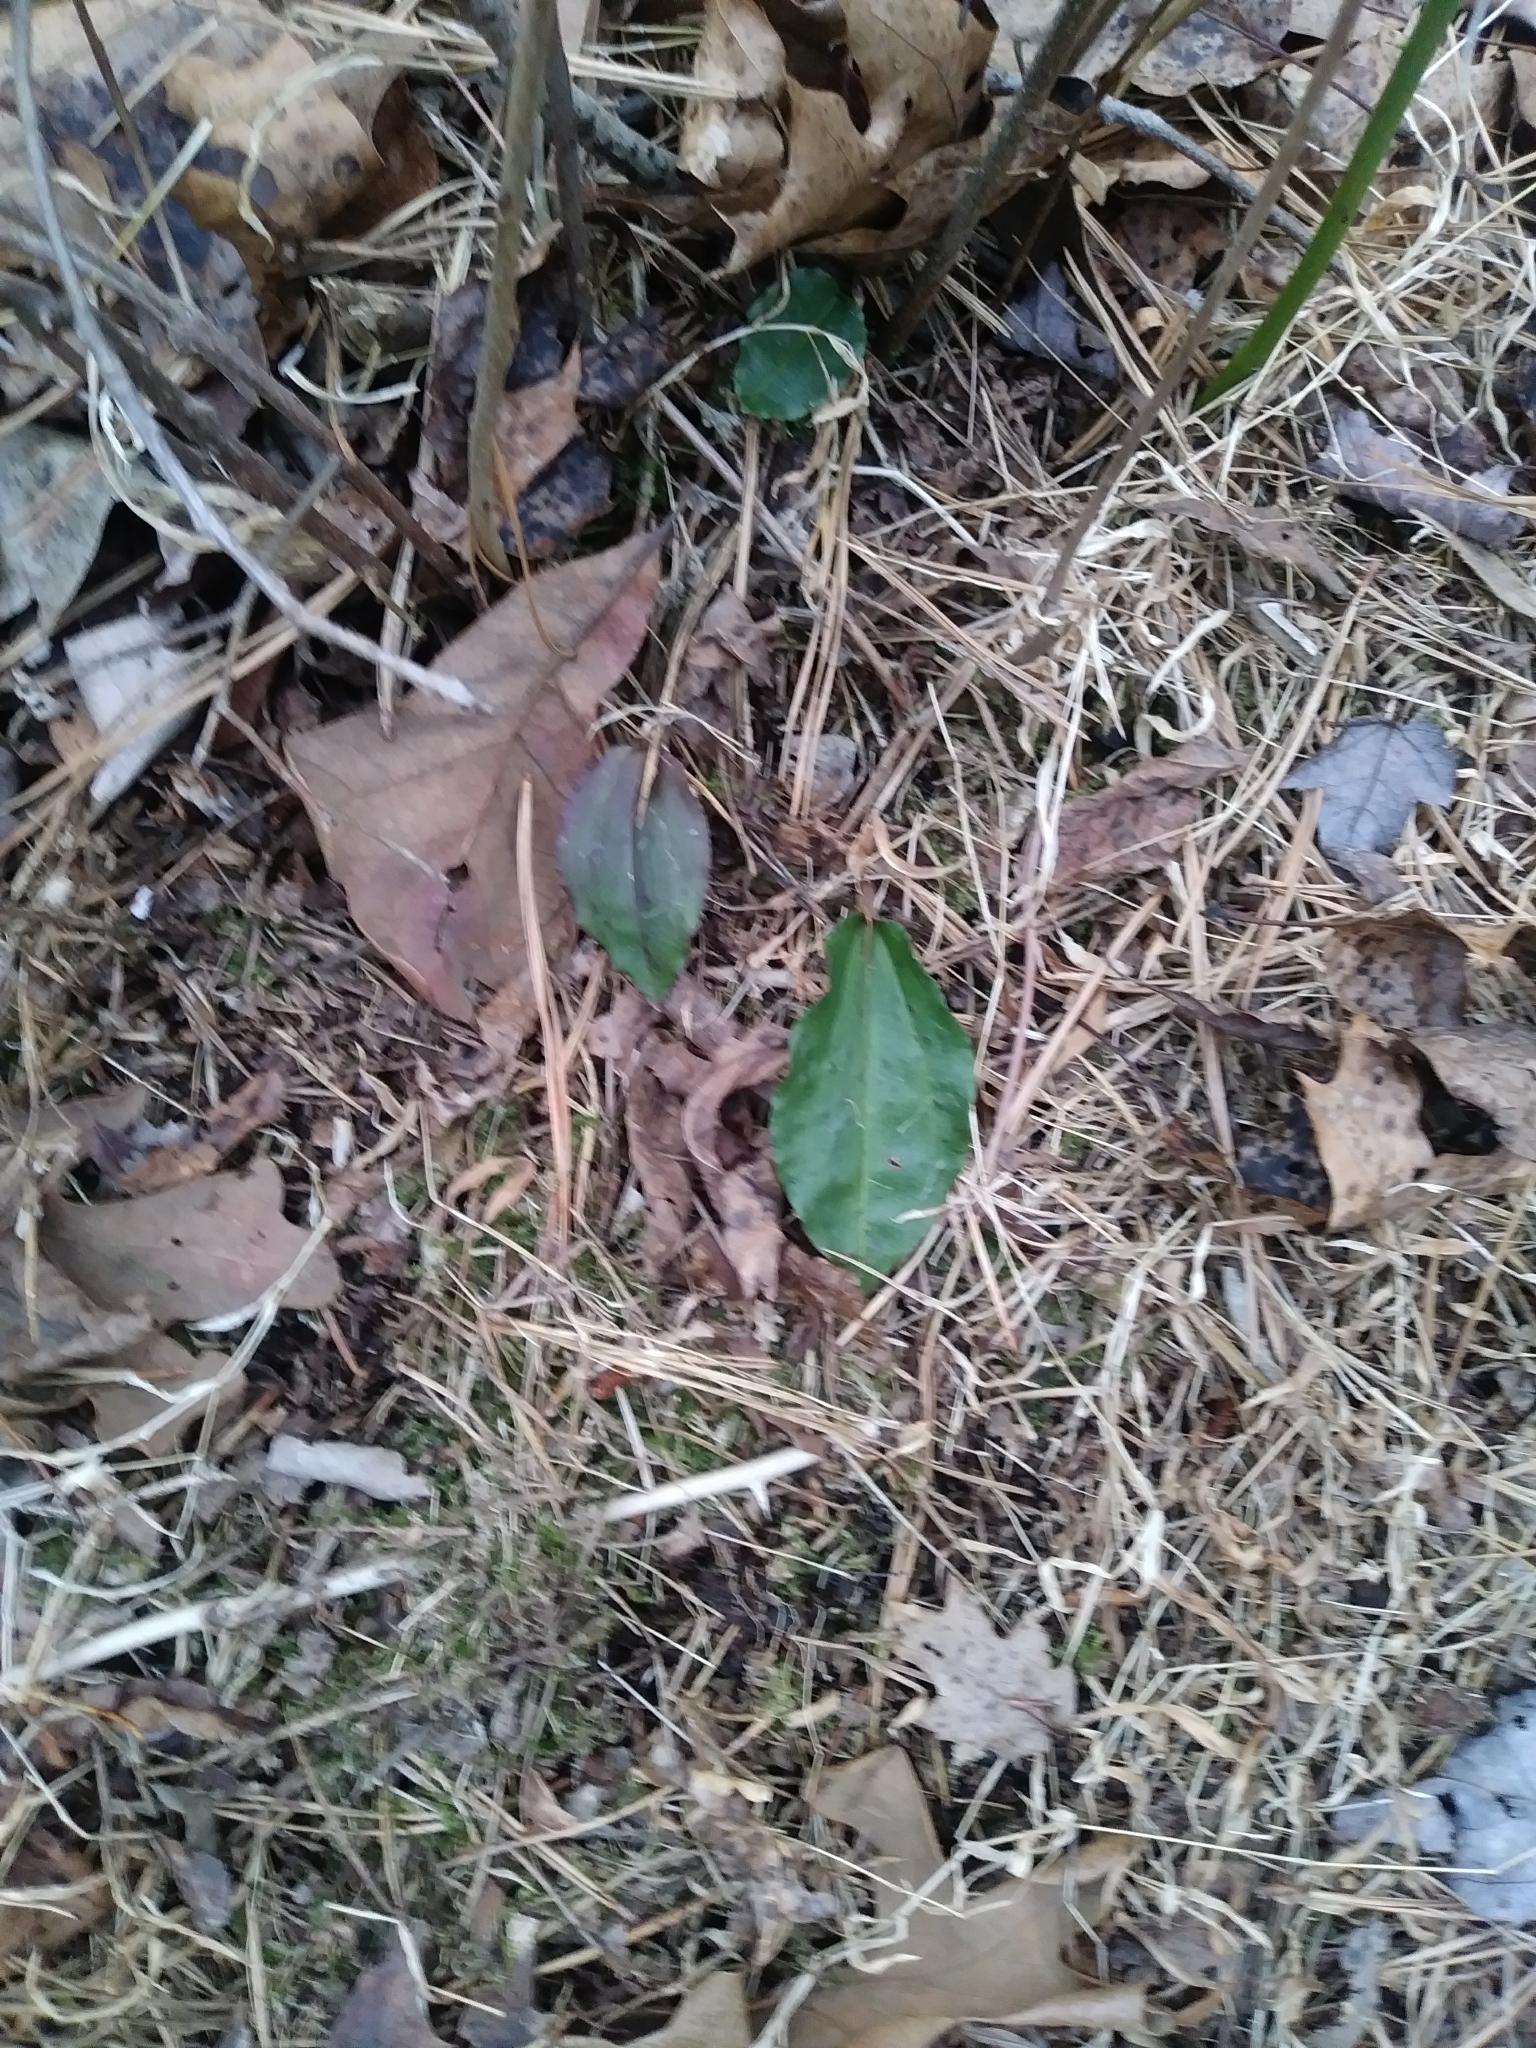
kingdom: Plantae
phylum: Tracheophyta
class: Liliopsida
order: Asparagales
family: Orchidaceae
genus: Tipularia
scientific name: Tipularia discolor
